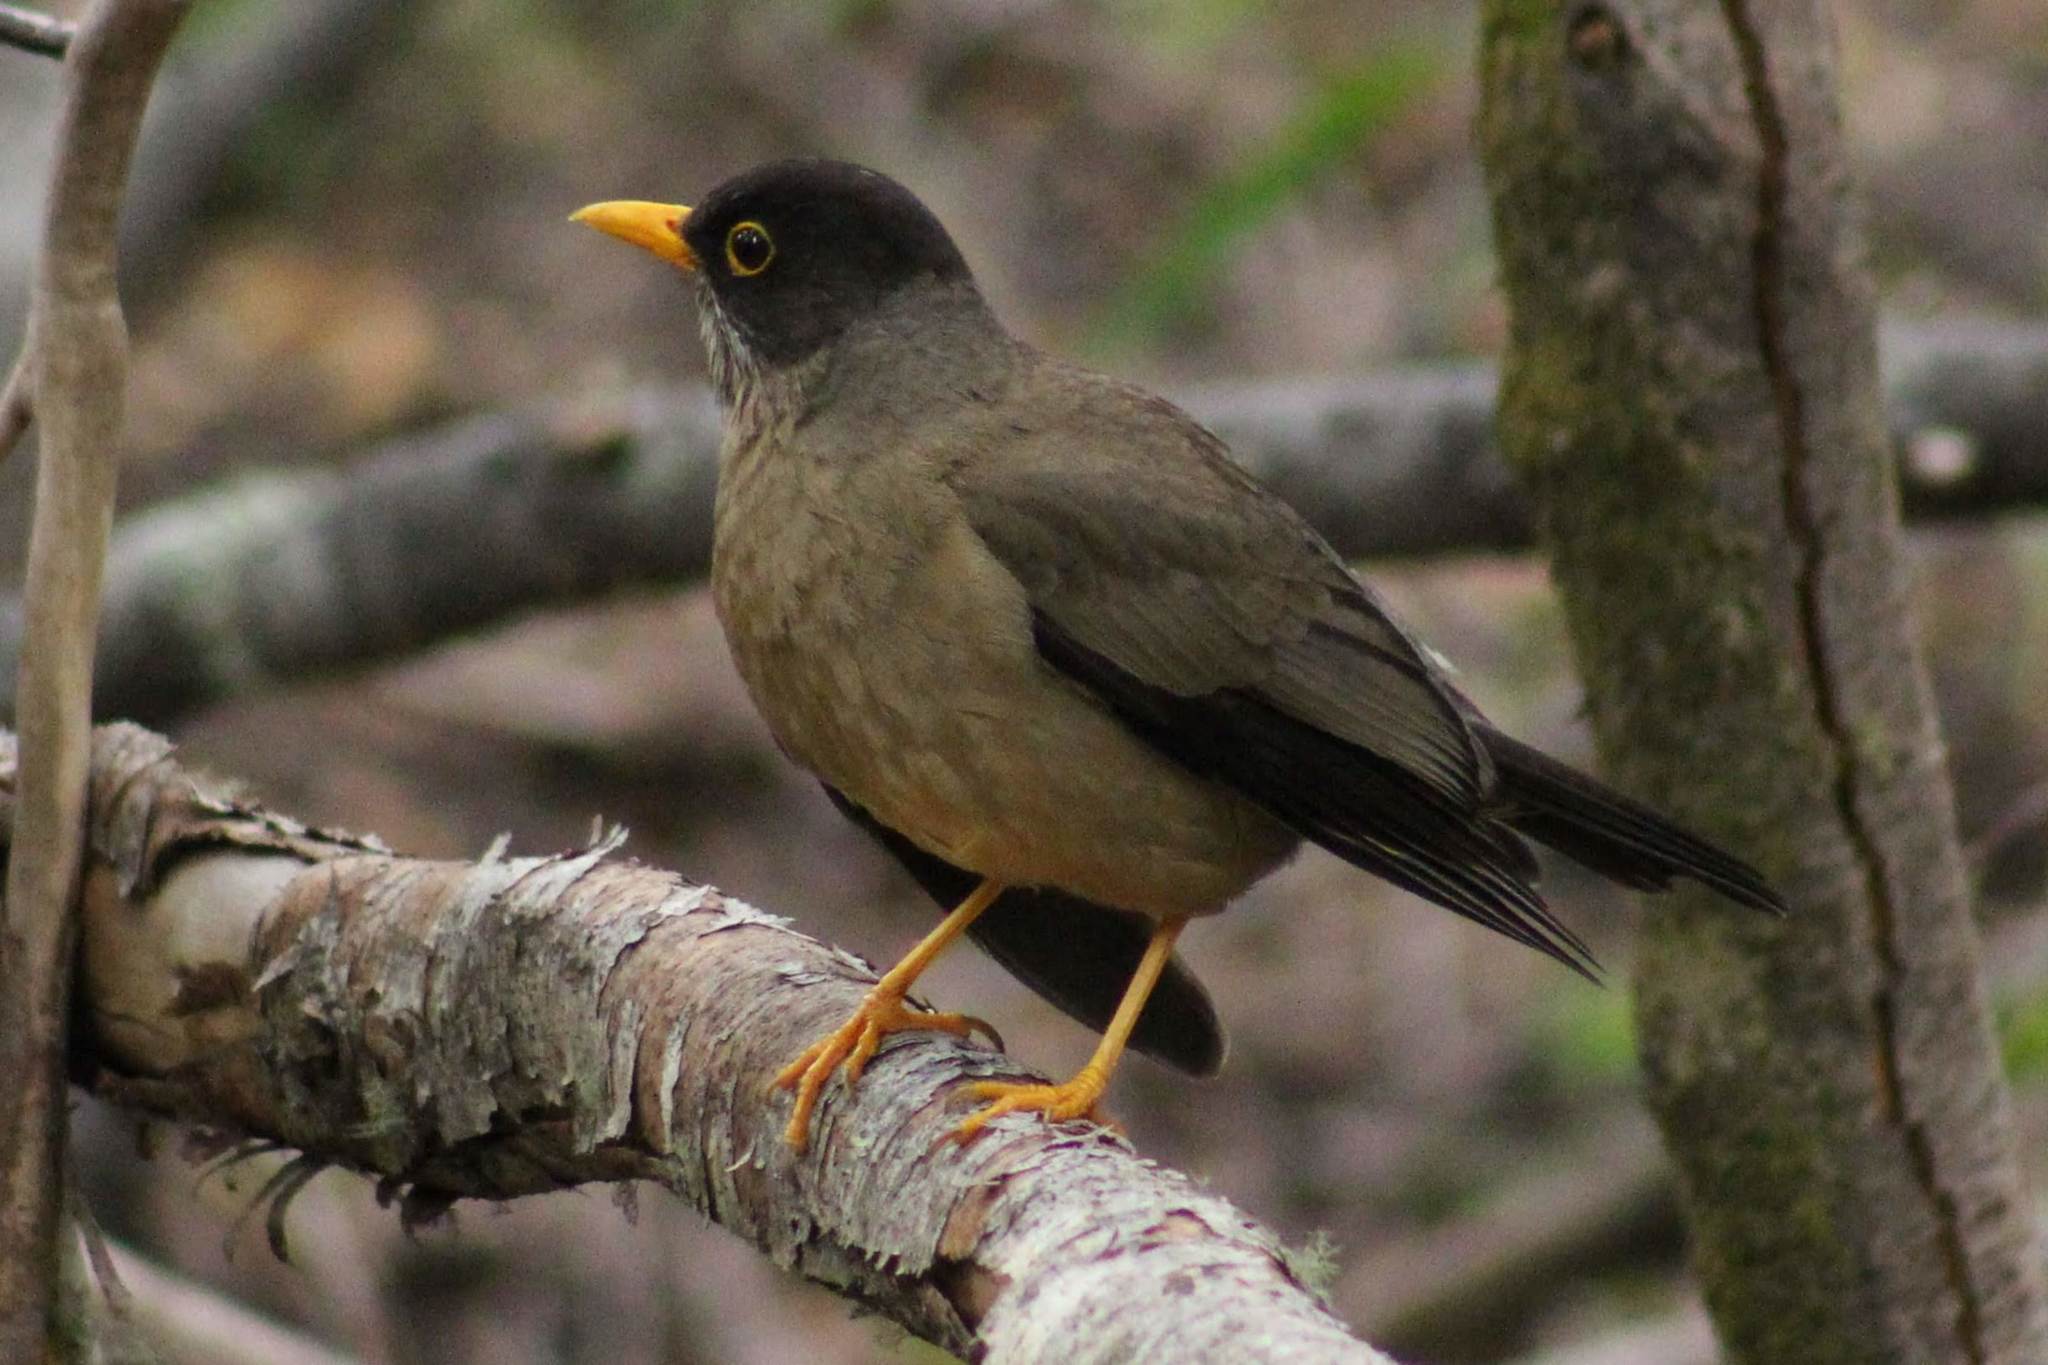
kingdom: Animalia
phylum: Chordata
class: Aves
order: Passeriformes
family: Turdidae
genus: Turdus
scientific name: Turdus falcklandii
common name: Austral thrush
